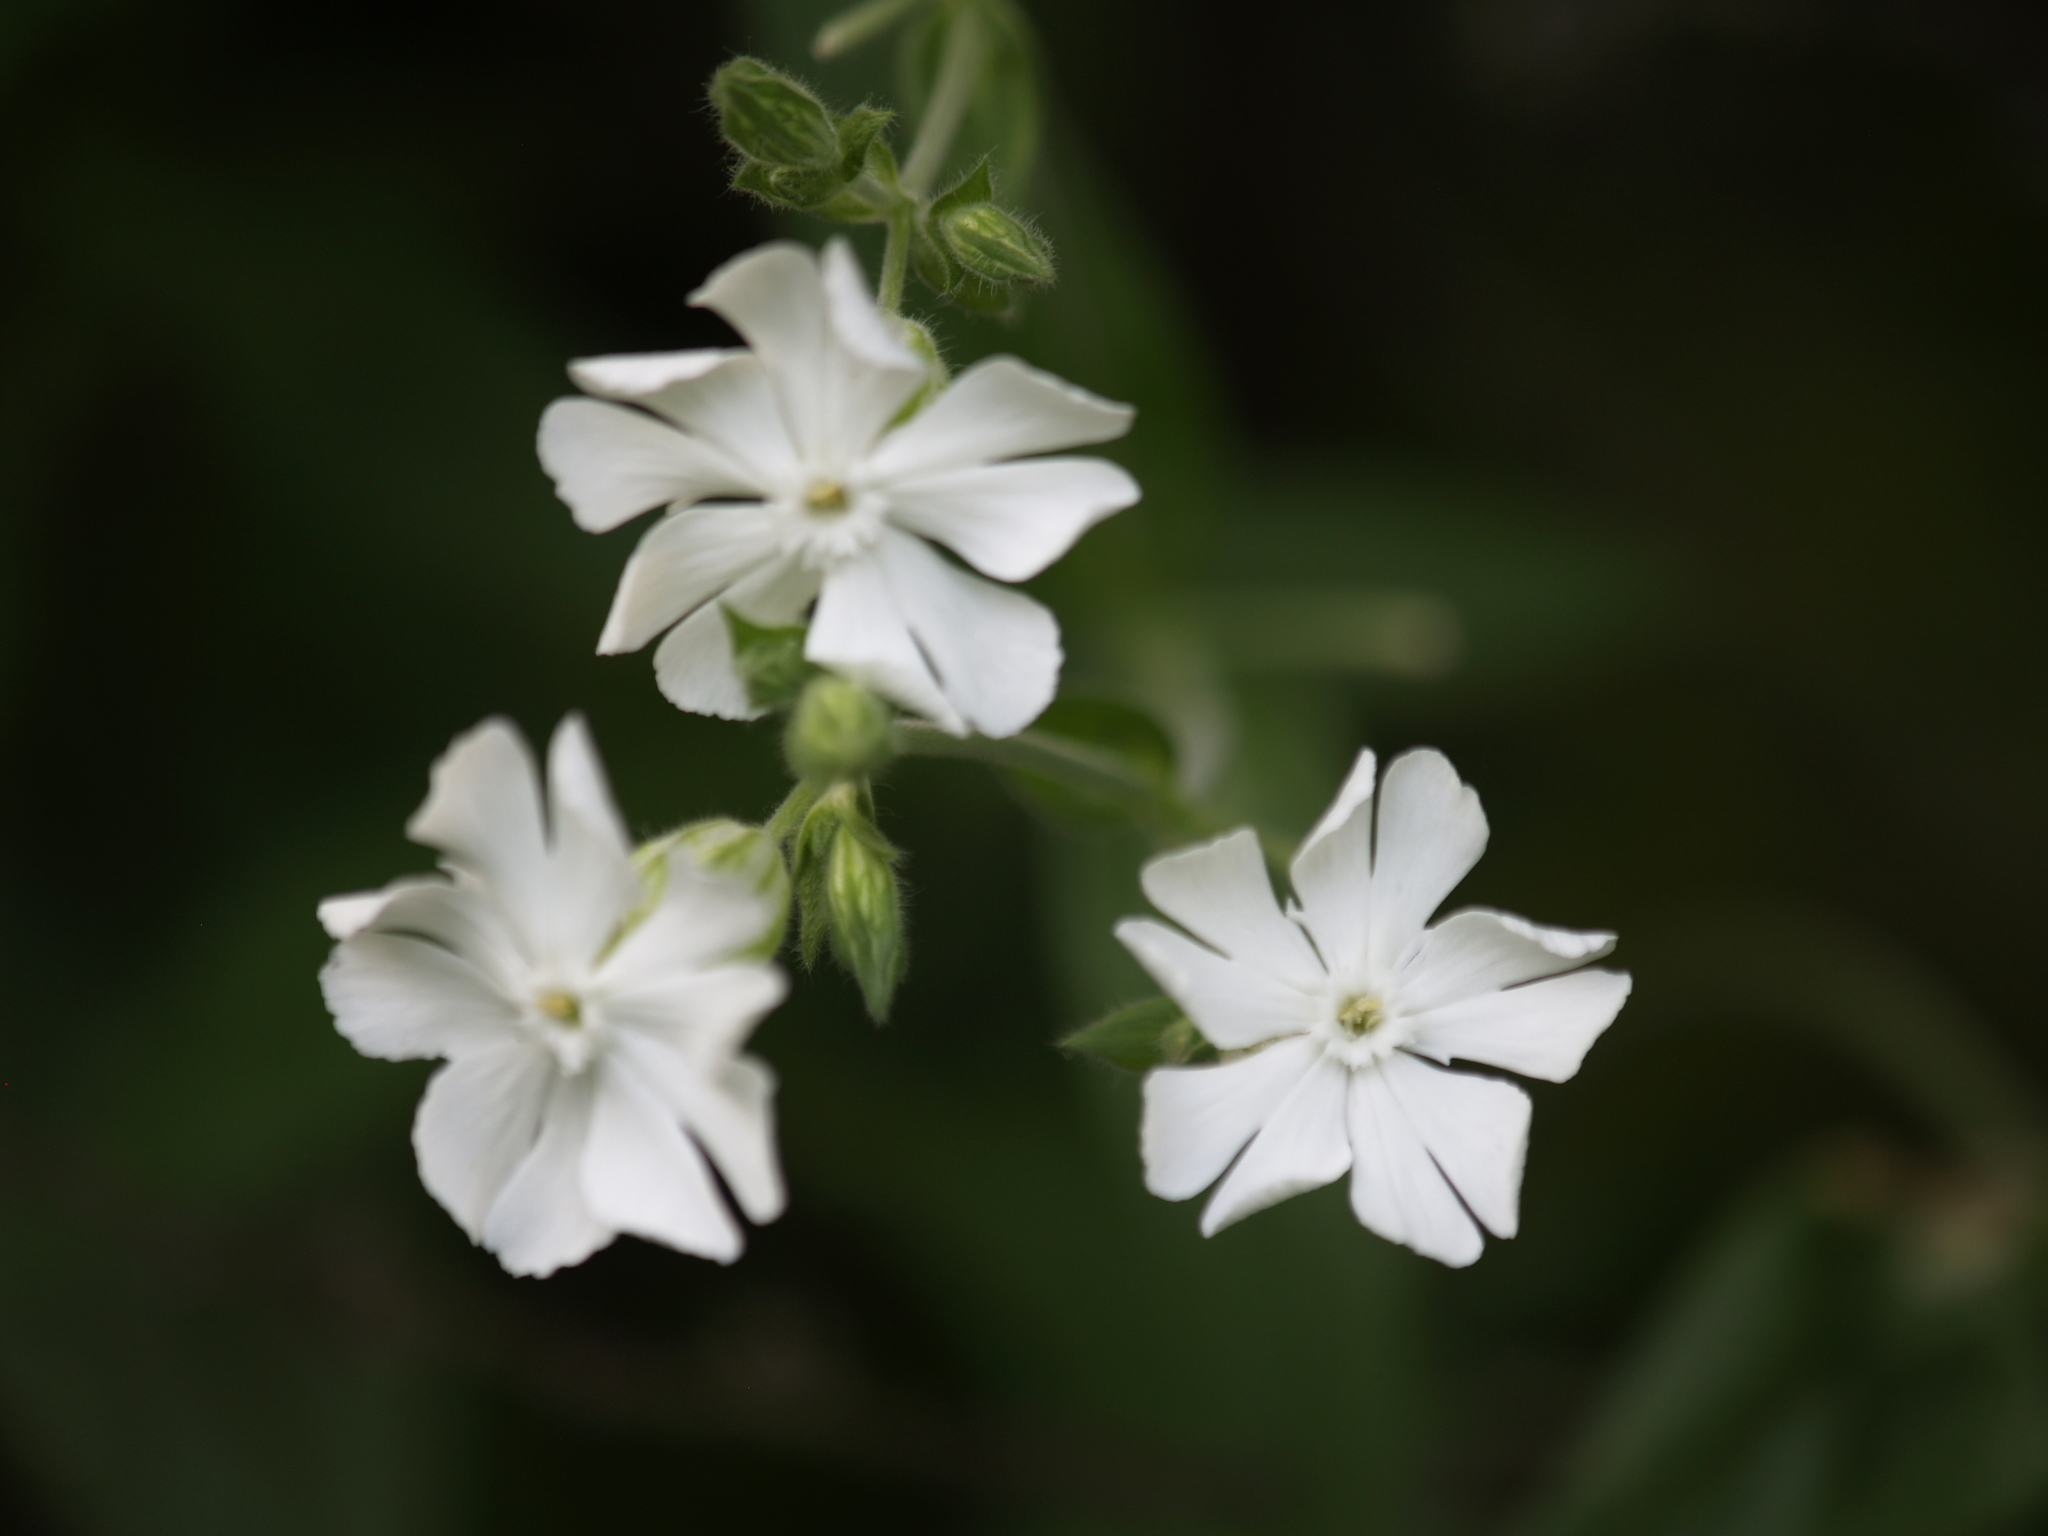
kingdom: Plantae
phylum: Tracheophyta
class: Magnoliopsida
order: Caryophyllales
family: Caryophyllaceae
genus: Silene
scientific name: Silene latifolia
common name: White campion
